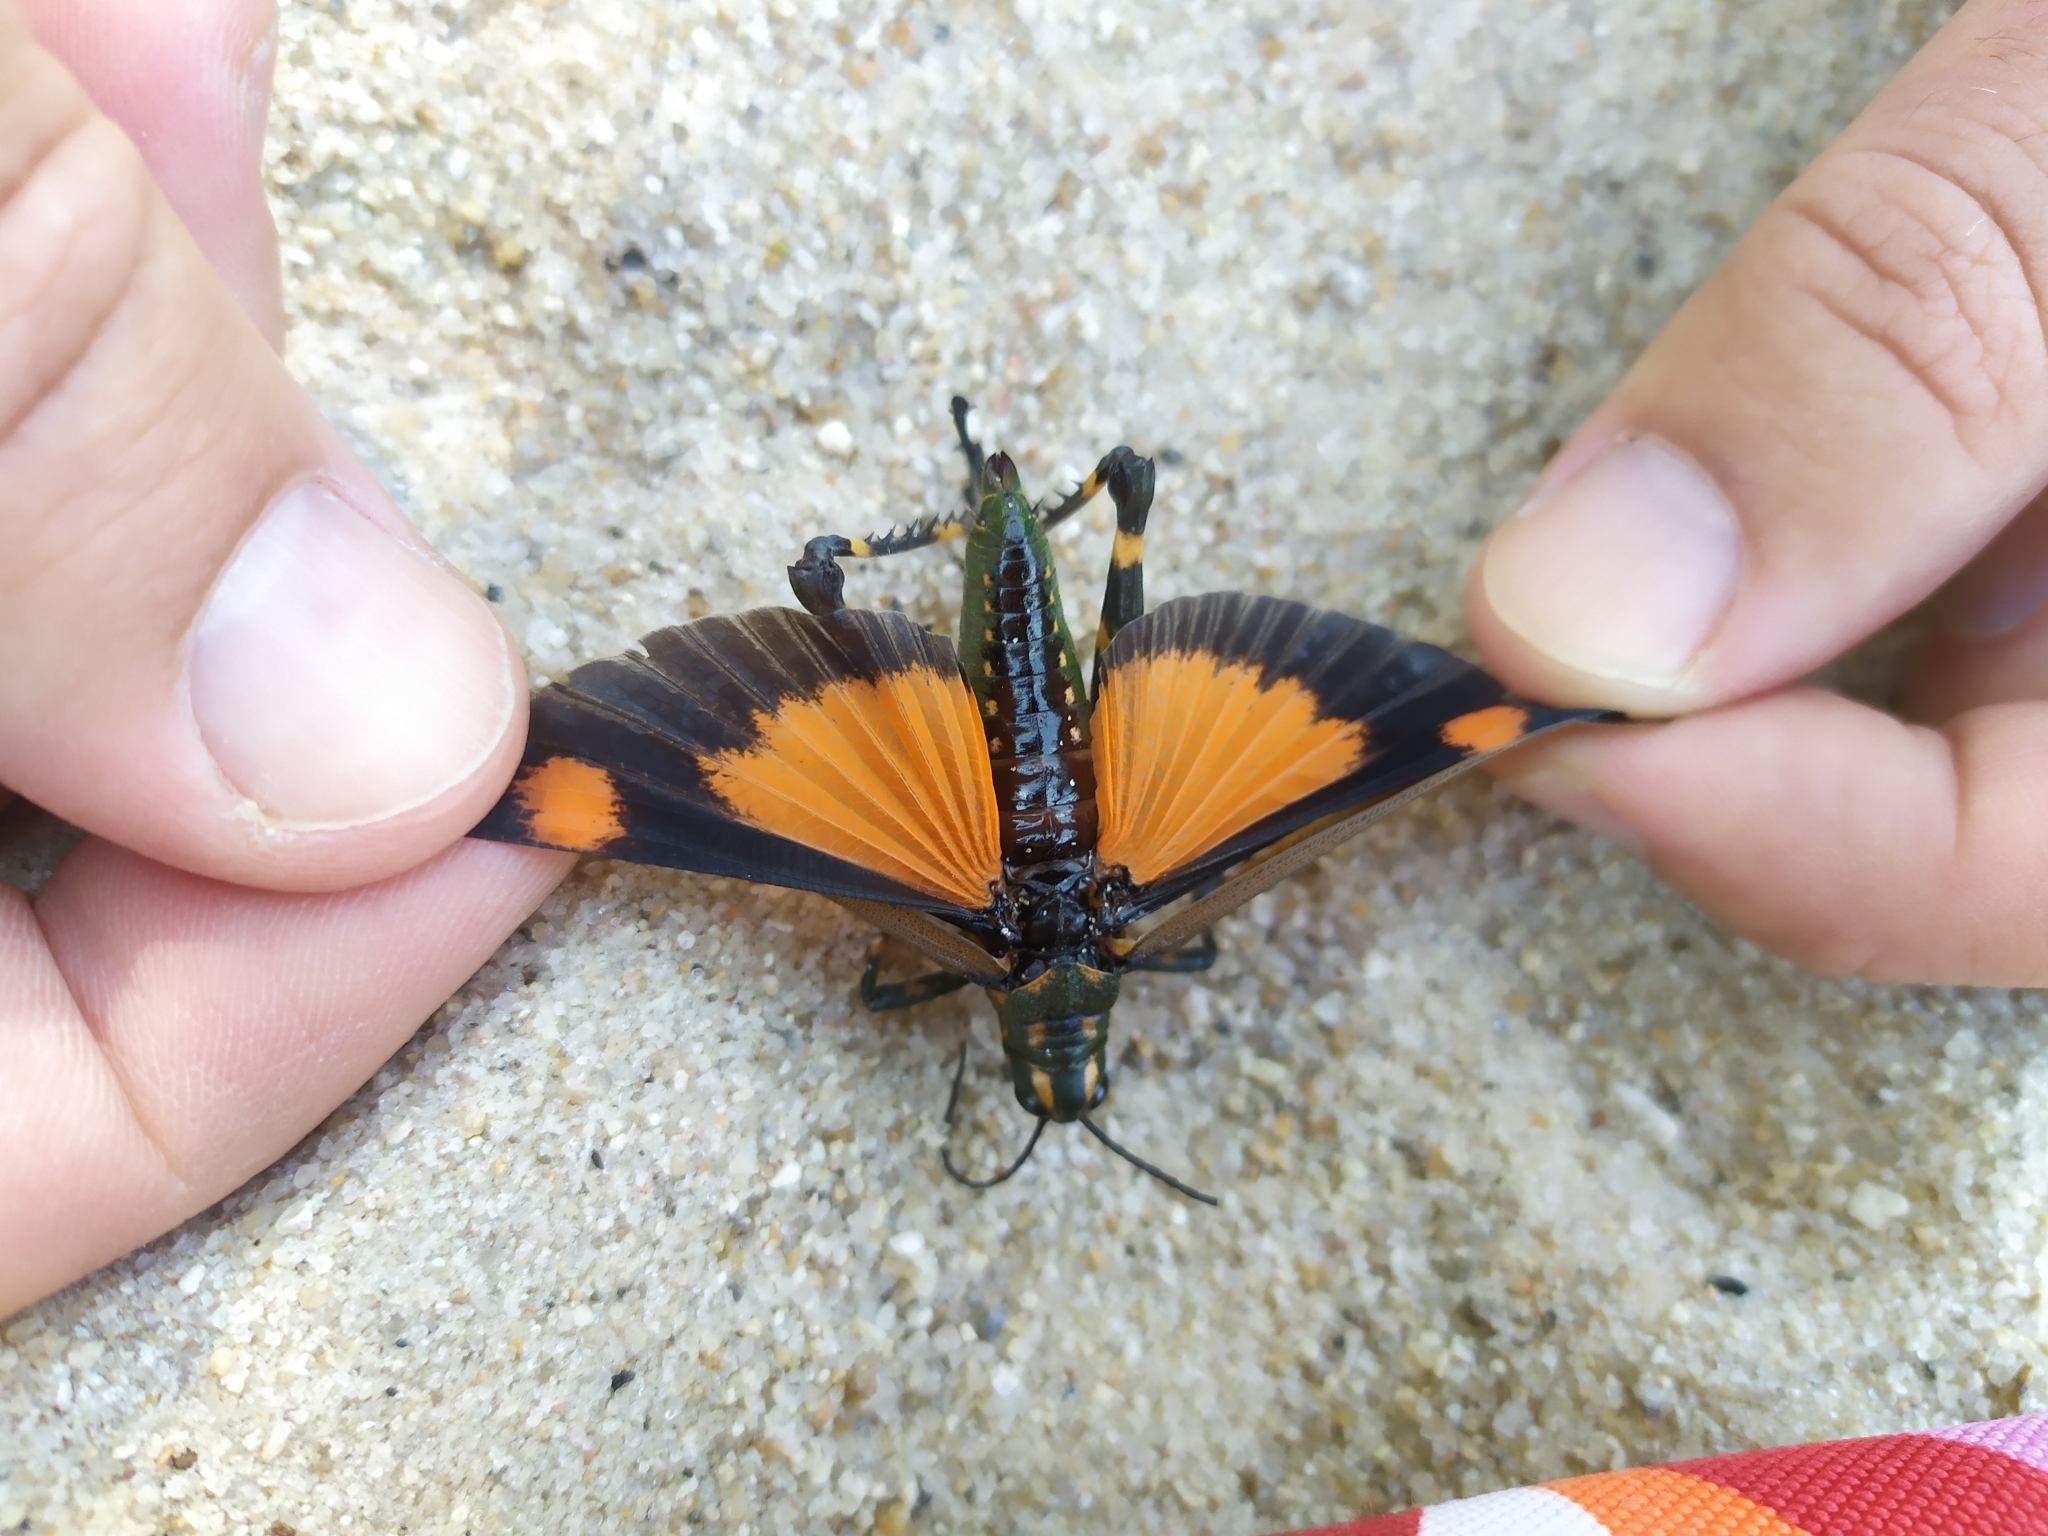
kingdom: Animalia
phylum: Arthropoda
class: Insecta
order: Orthoptera
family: Romaleidae
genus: Chromacris
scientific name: Chromacris speciosa
